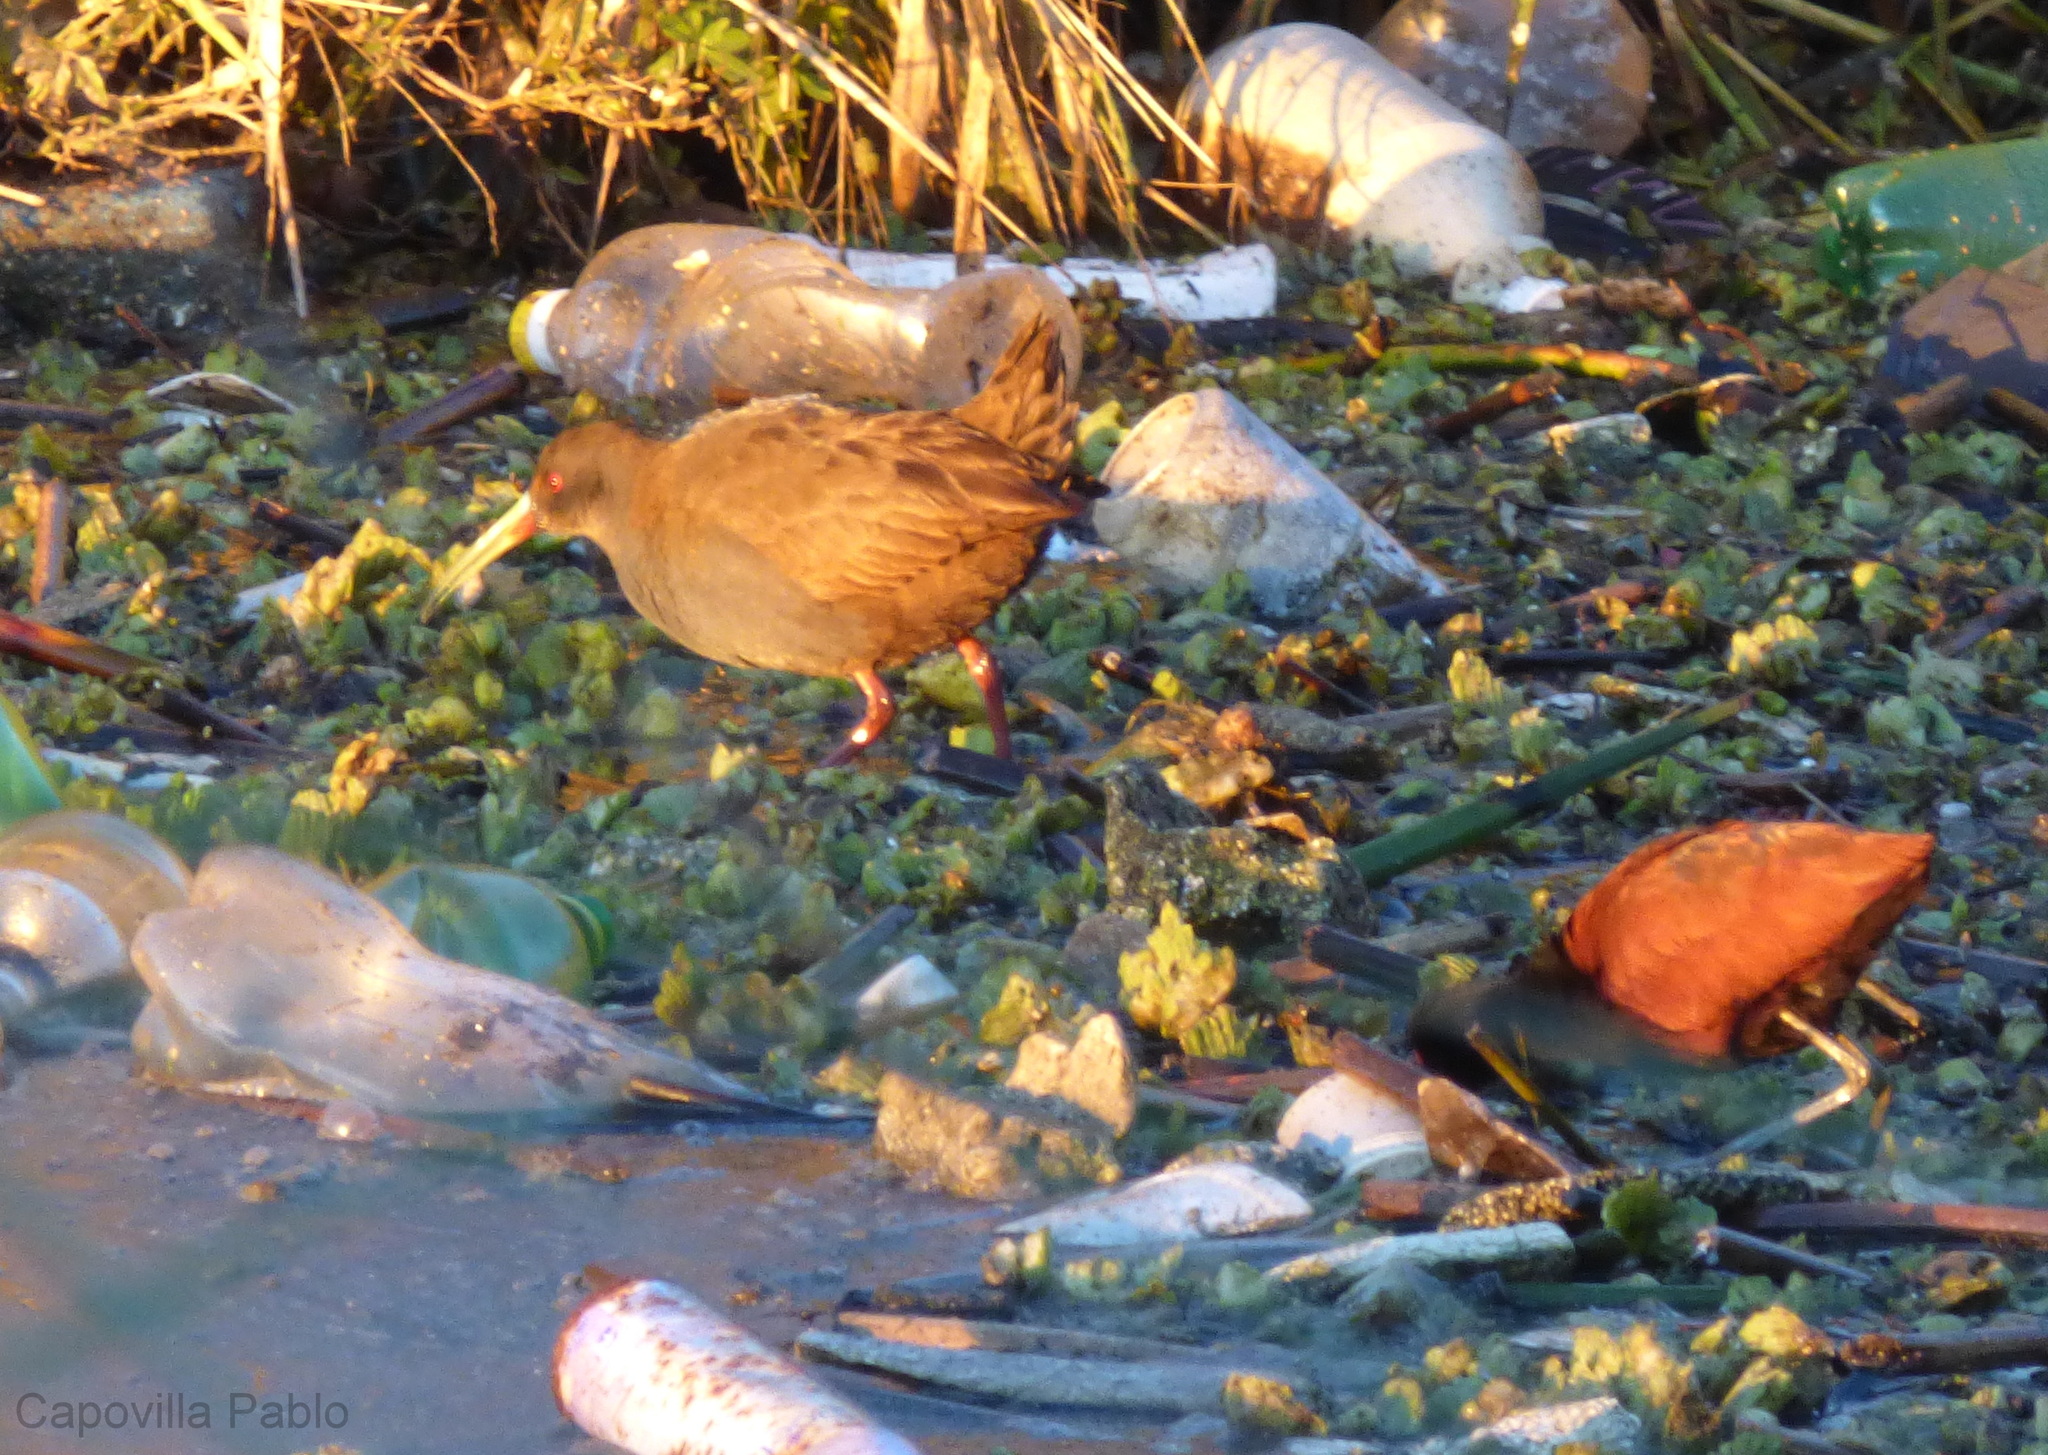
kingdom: Animalia
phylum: Chordata
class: Aves
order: Gruiformes
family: Rallidae
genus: Pardirallus
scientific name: Pardirallus sanguinolentus
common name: Plumbeous rail
